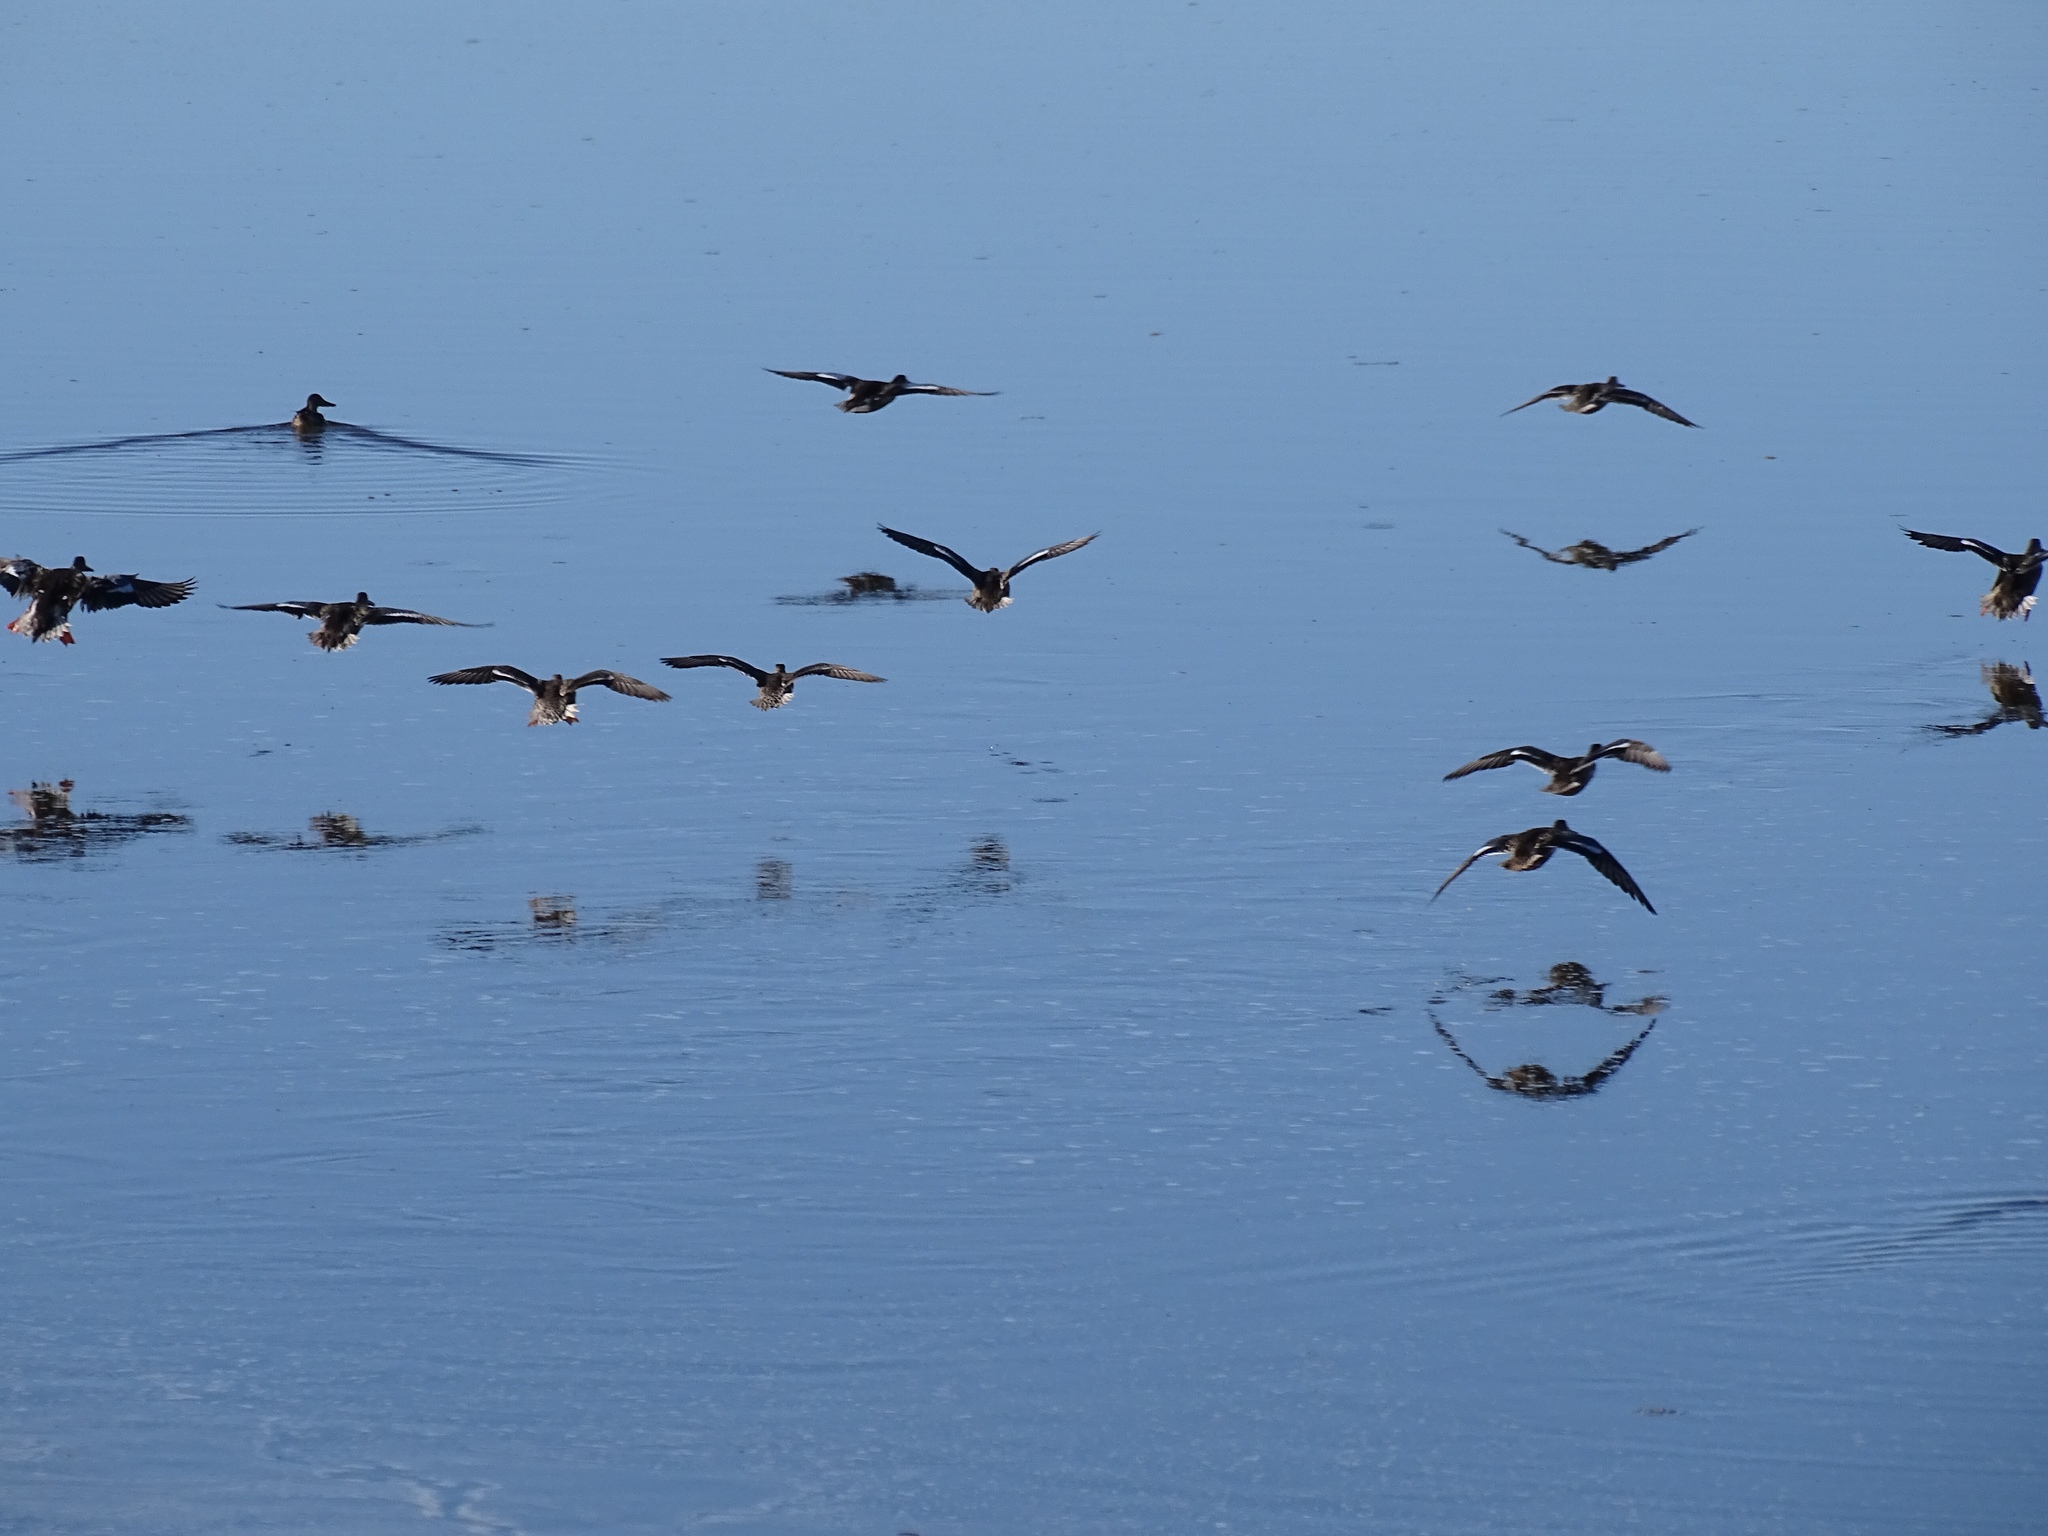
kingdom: Animalia
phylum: Chordata
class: Aves
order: Anseriformes
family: Anatidae
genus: Spatula
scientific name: Spatula clypeata
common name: Northern shoveler
